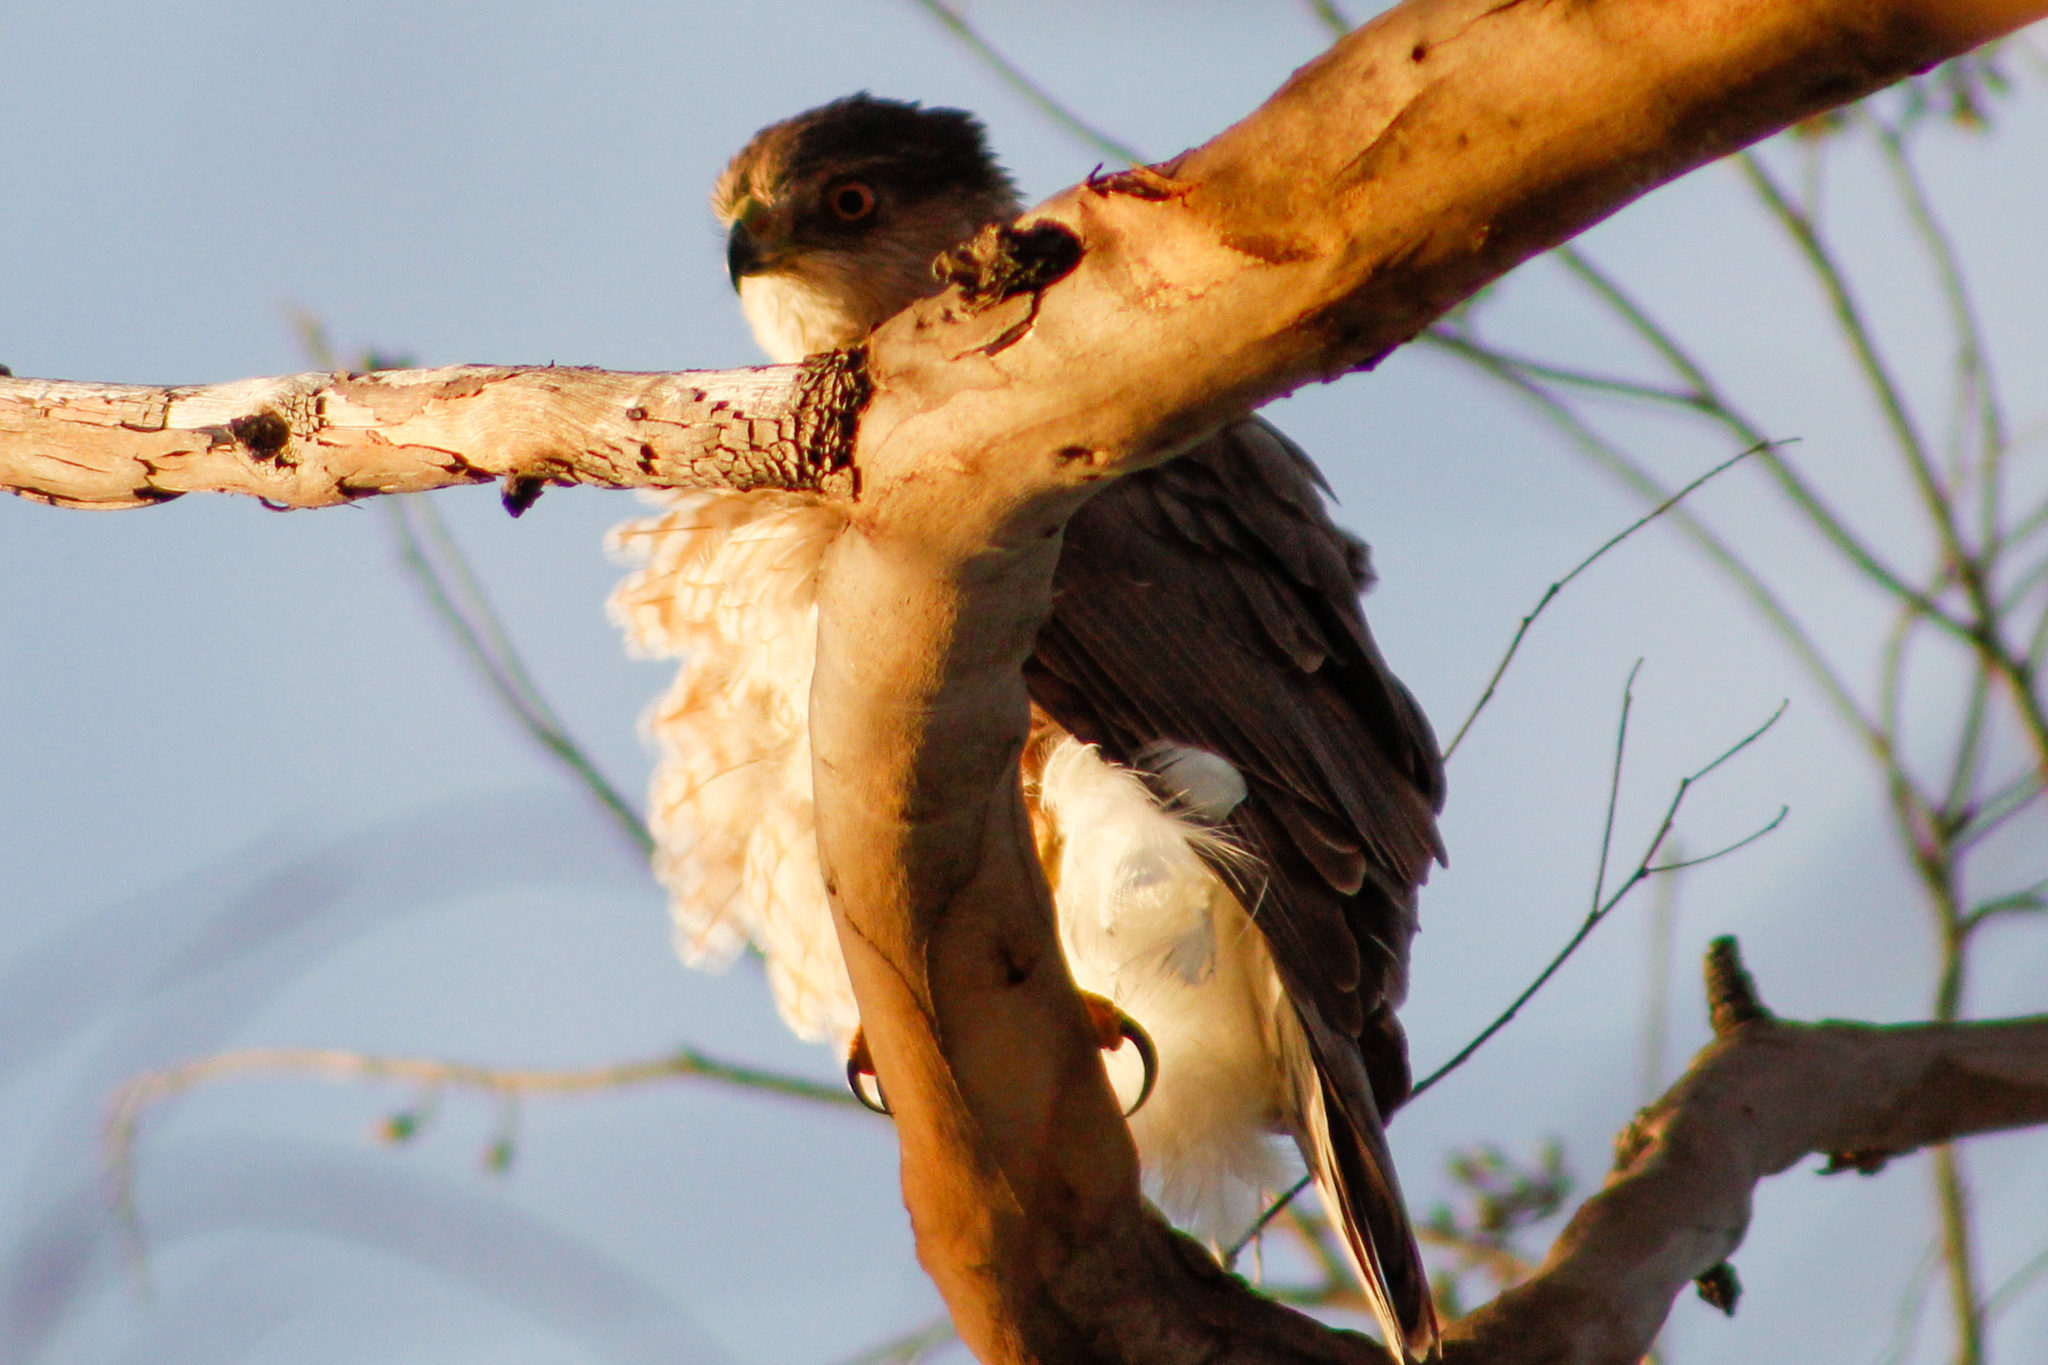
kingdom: Animalia
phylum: Chordata
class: Aves
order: Accipitriformes
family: Accipitridae
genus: Accipiter
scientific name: Accipiter cooperii
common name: Cooper's hawk
